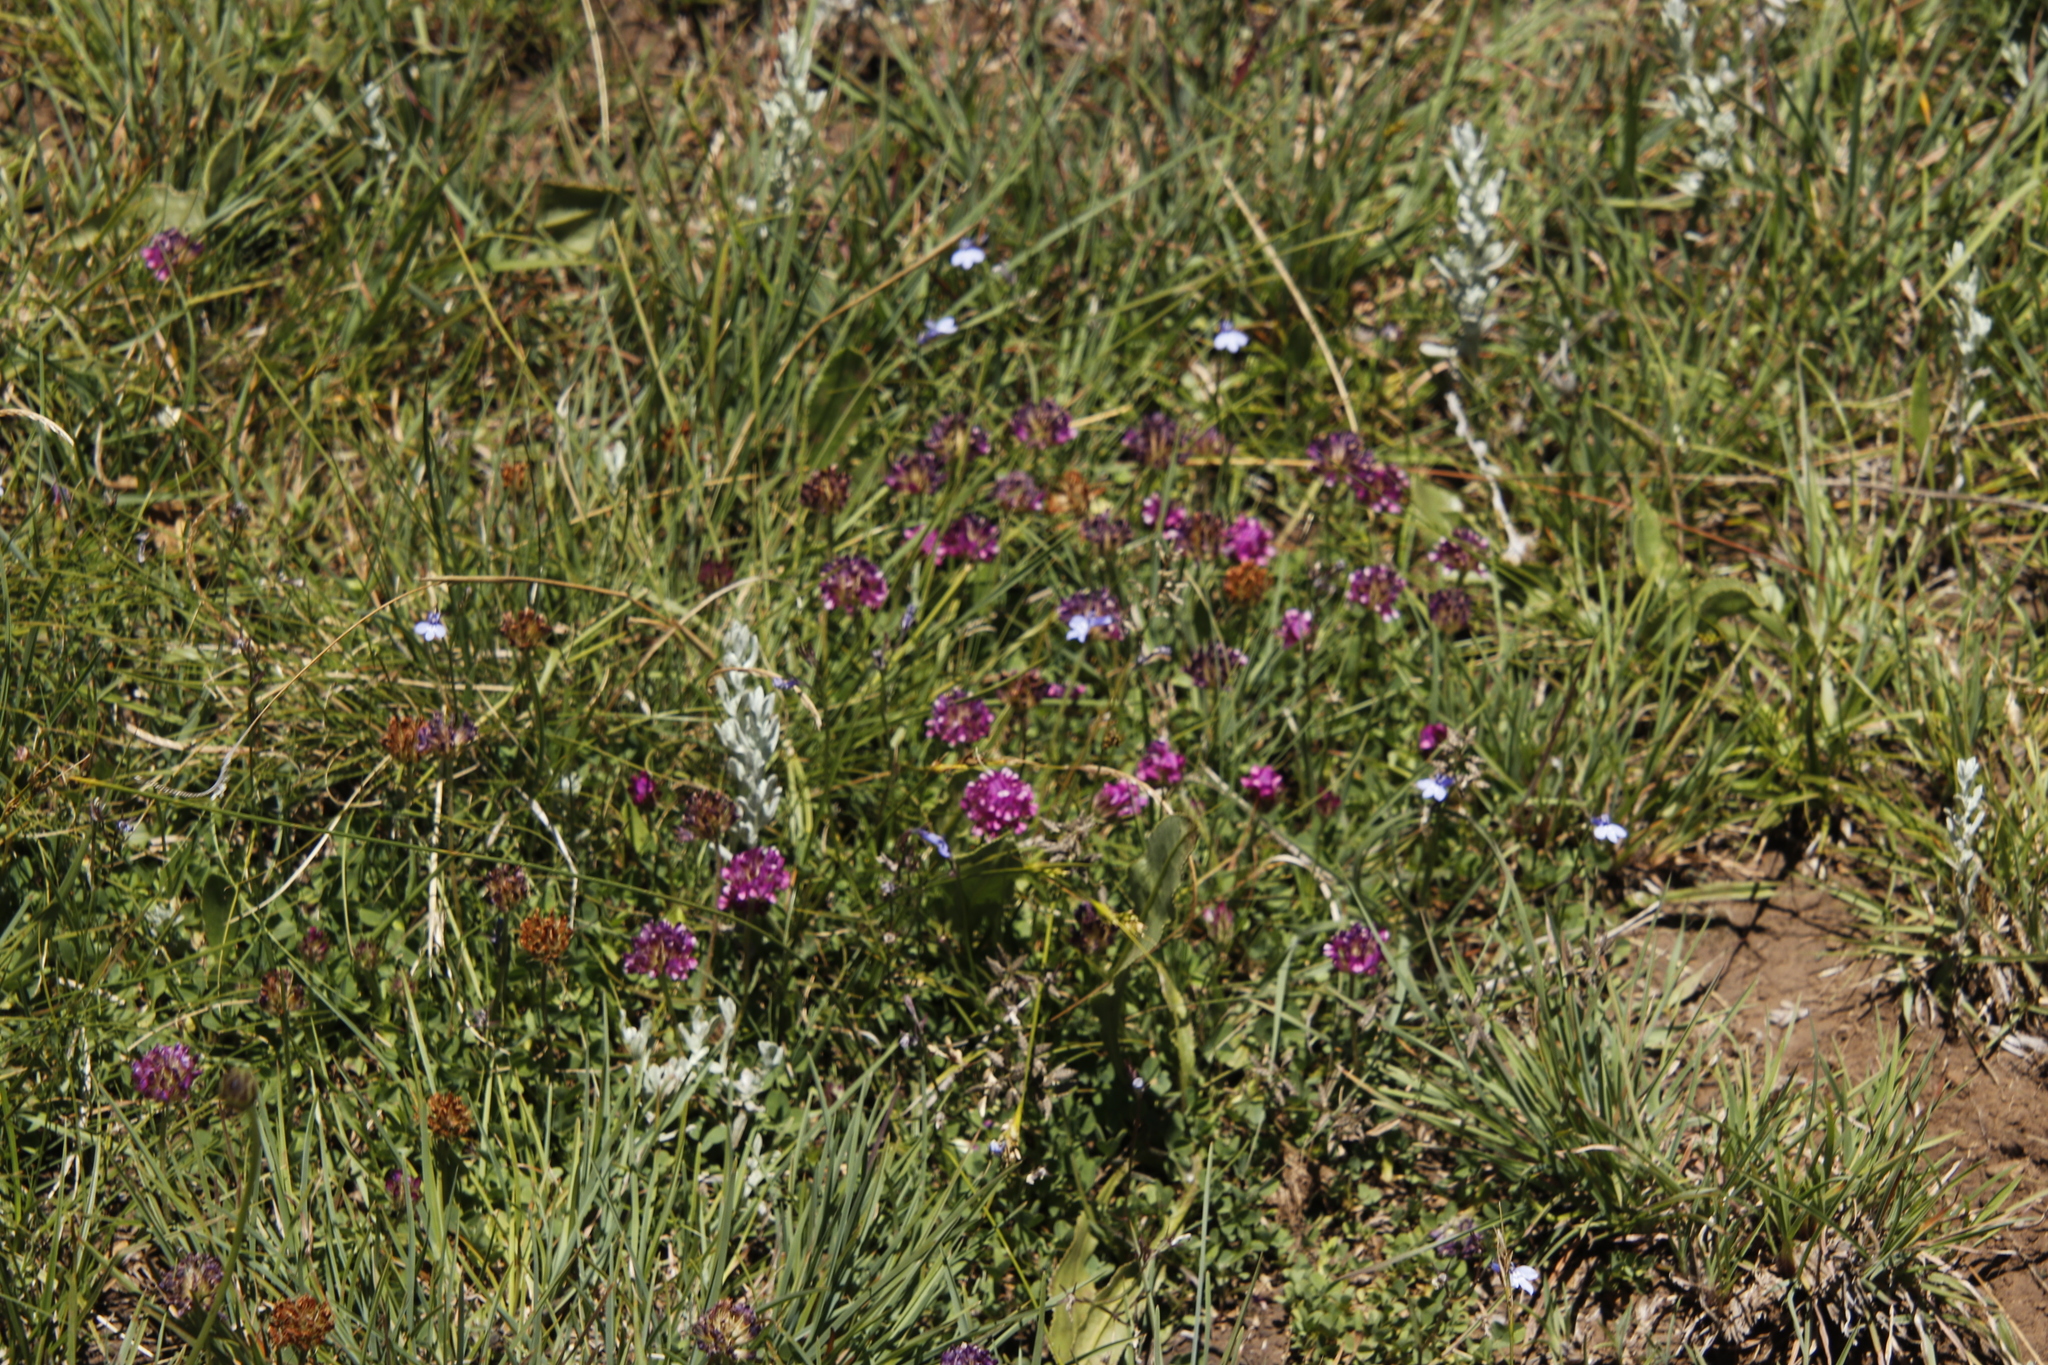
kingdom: Plantae
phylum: Tracheophyta
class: Magnoliopsida
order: Fabales
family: Fabaceae
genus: Trifolium
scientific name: Trifolium burchellianum
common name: Burchell's clover
